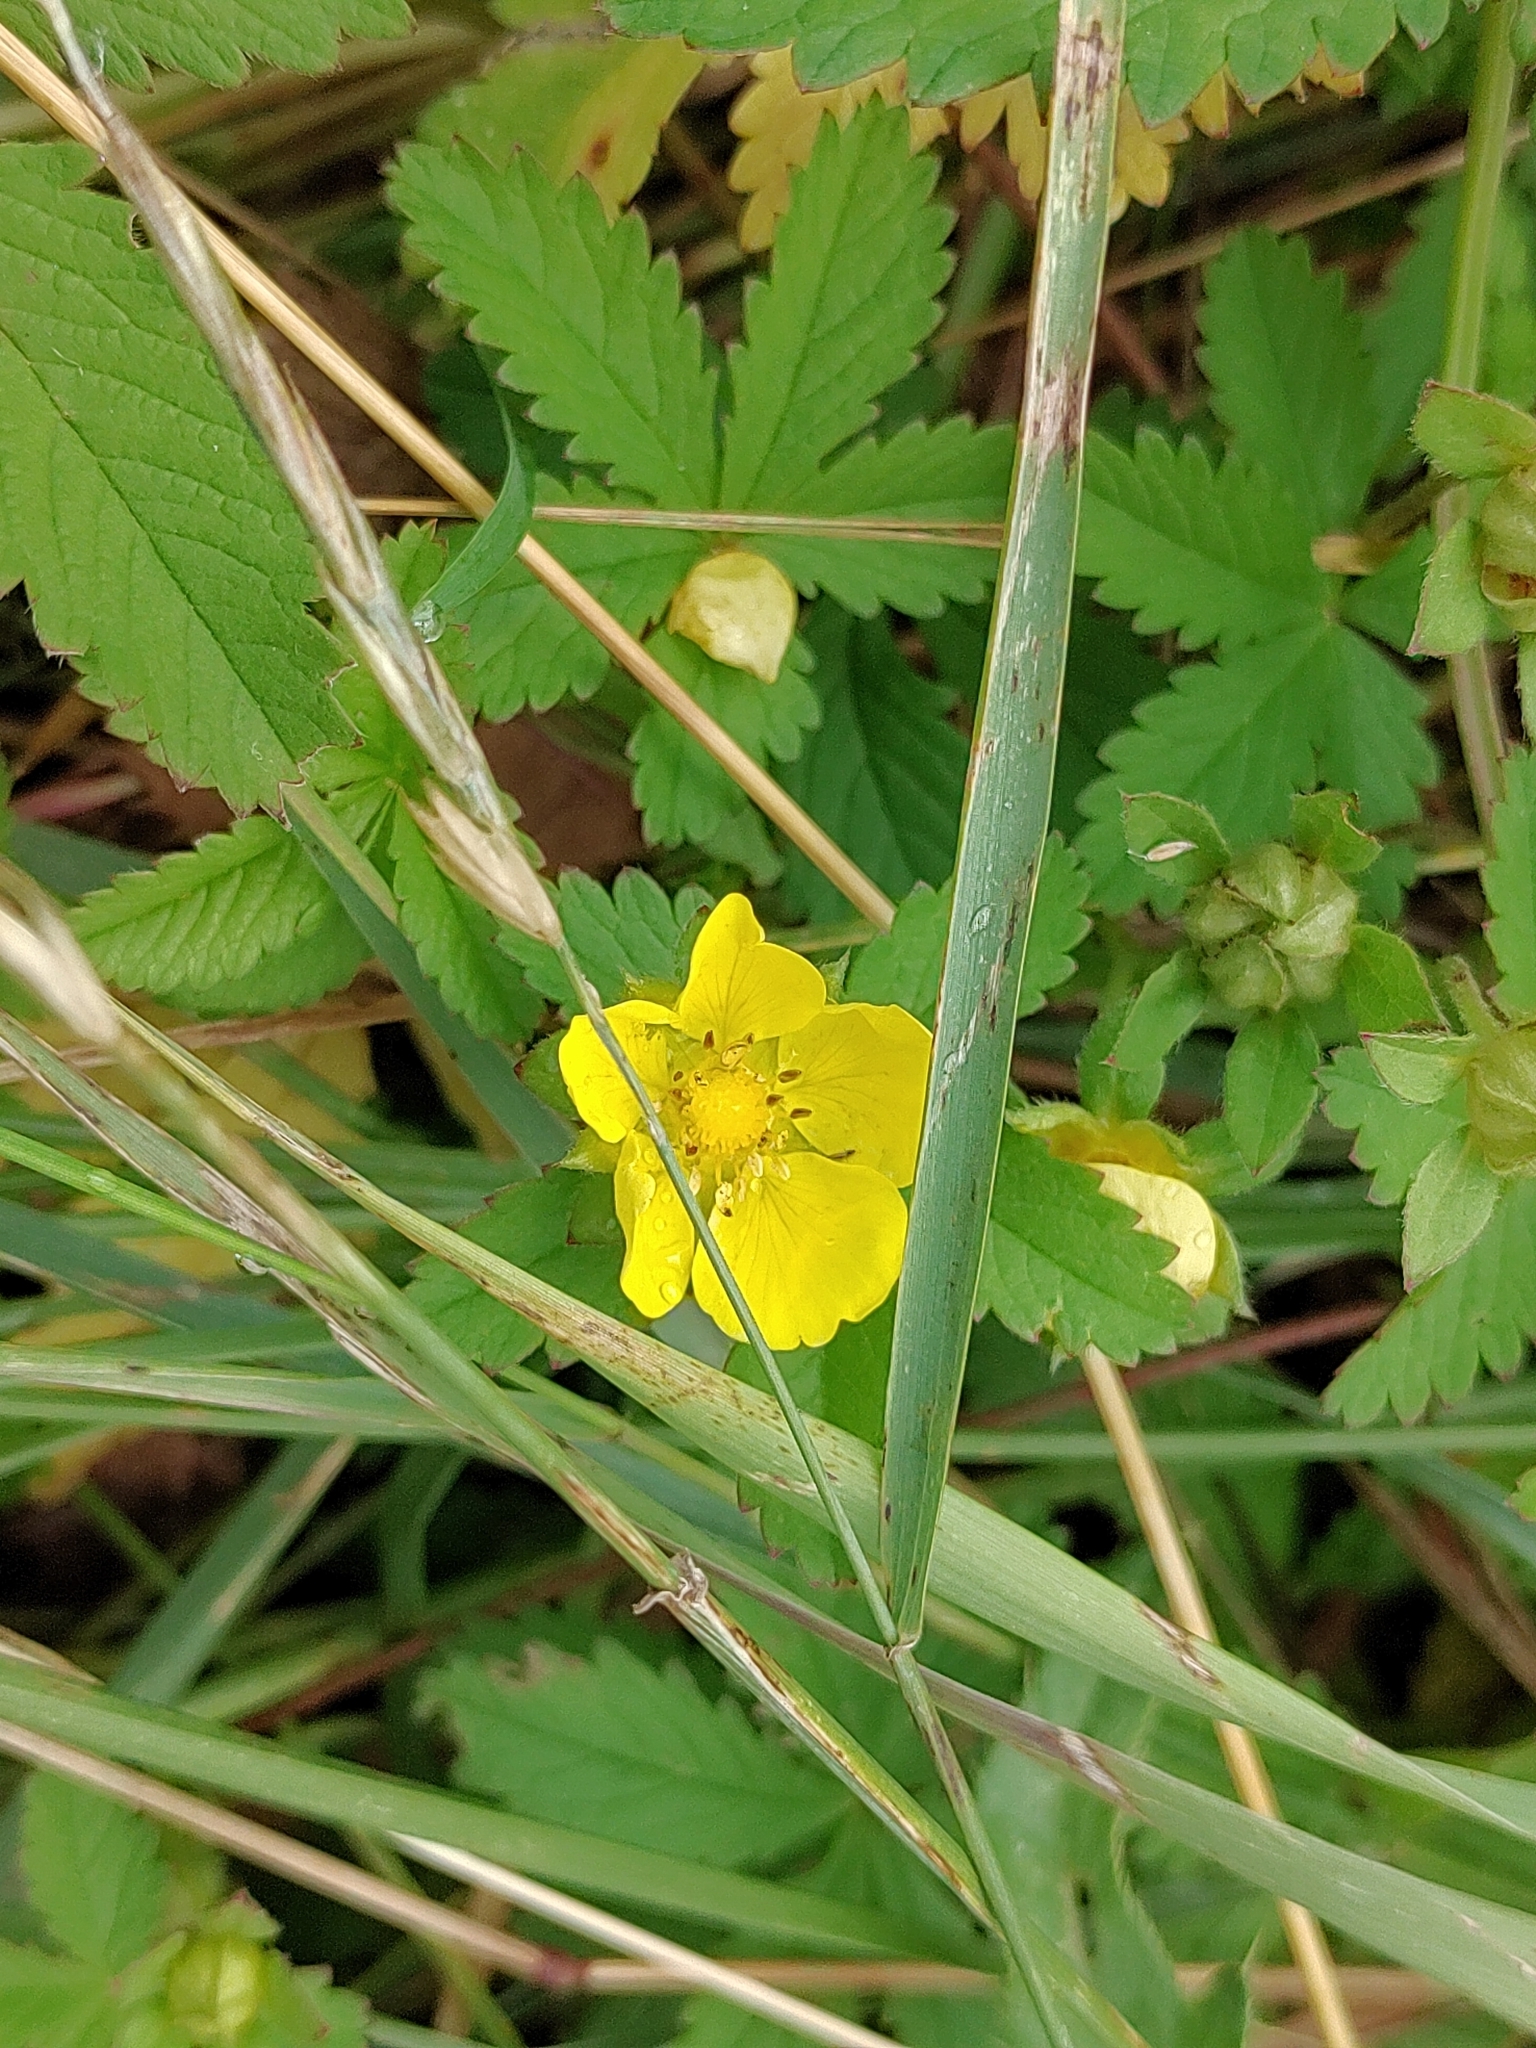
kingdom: Plantae
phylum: Tracheophyta
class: Magnoliopsida
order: Rosales
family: Rosaceae
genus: Potentilla
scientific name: Potentilla reptans
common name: Creeping cinquefoil
